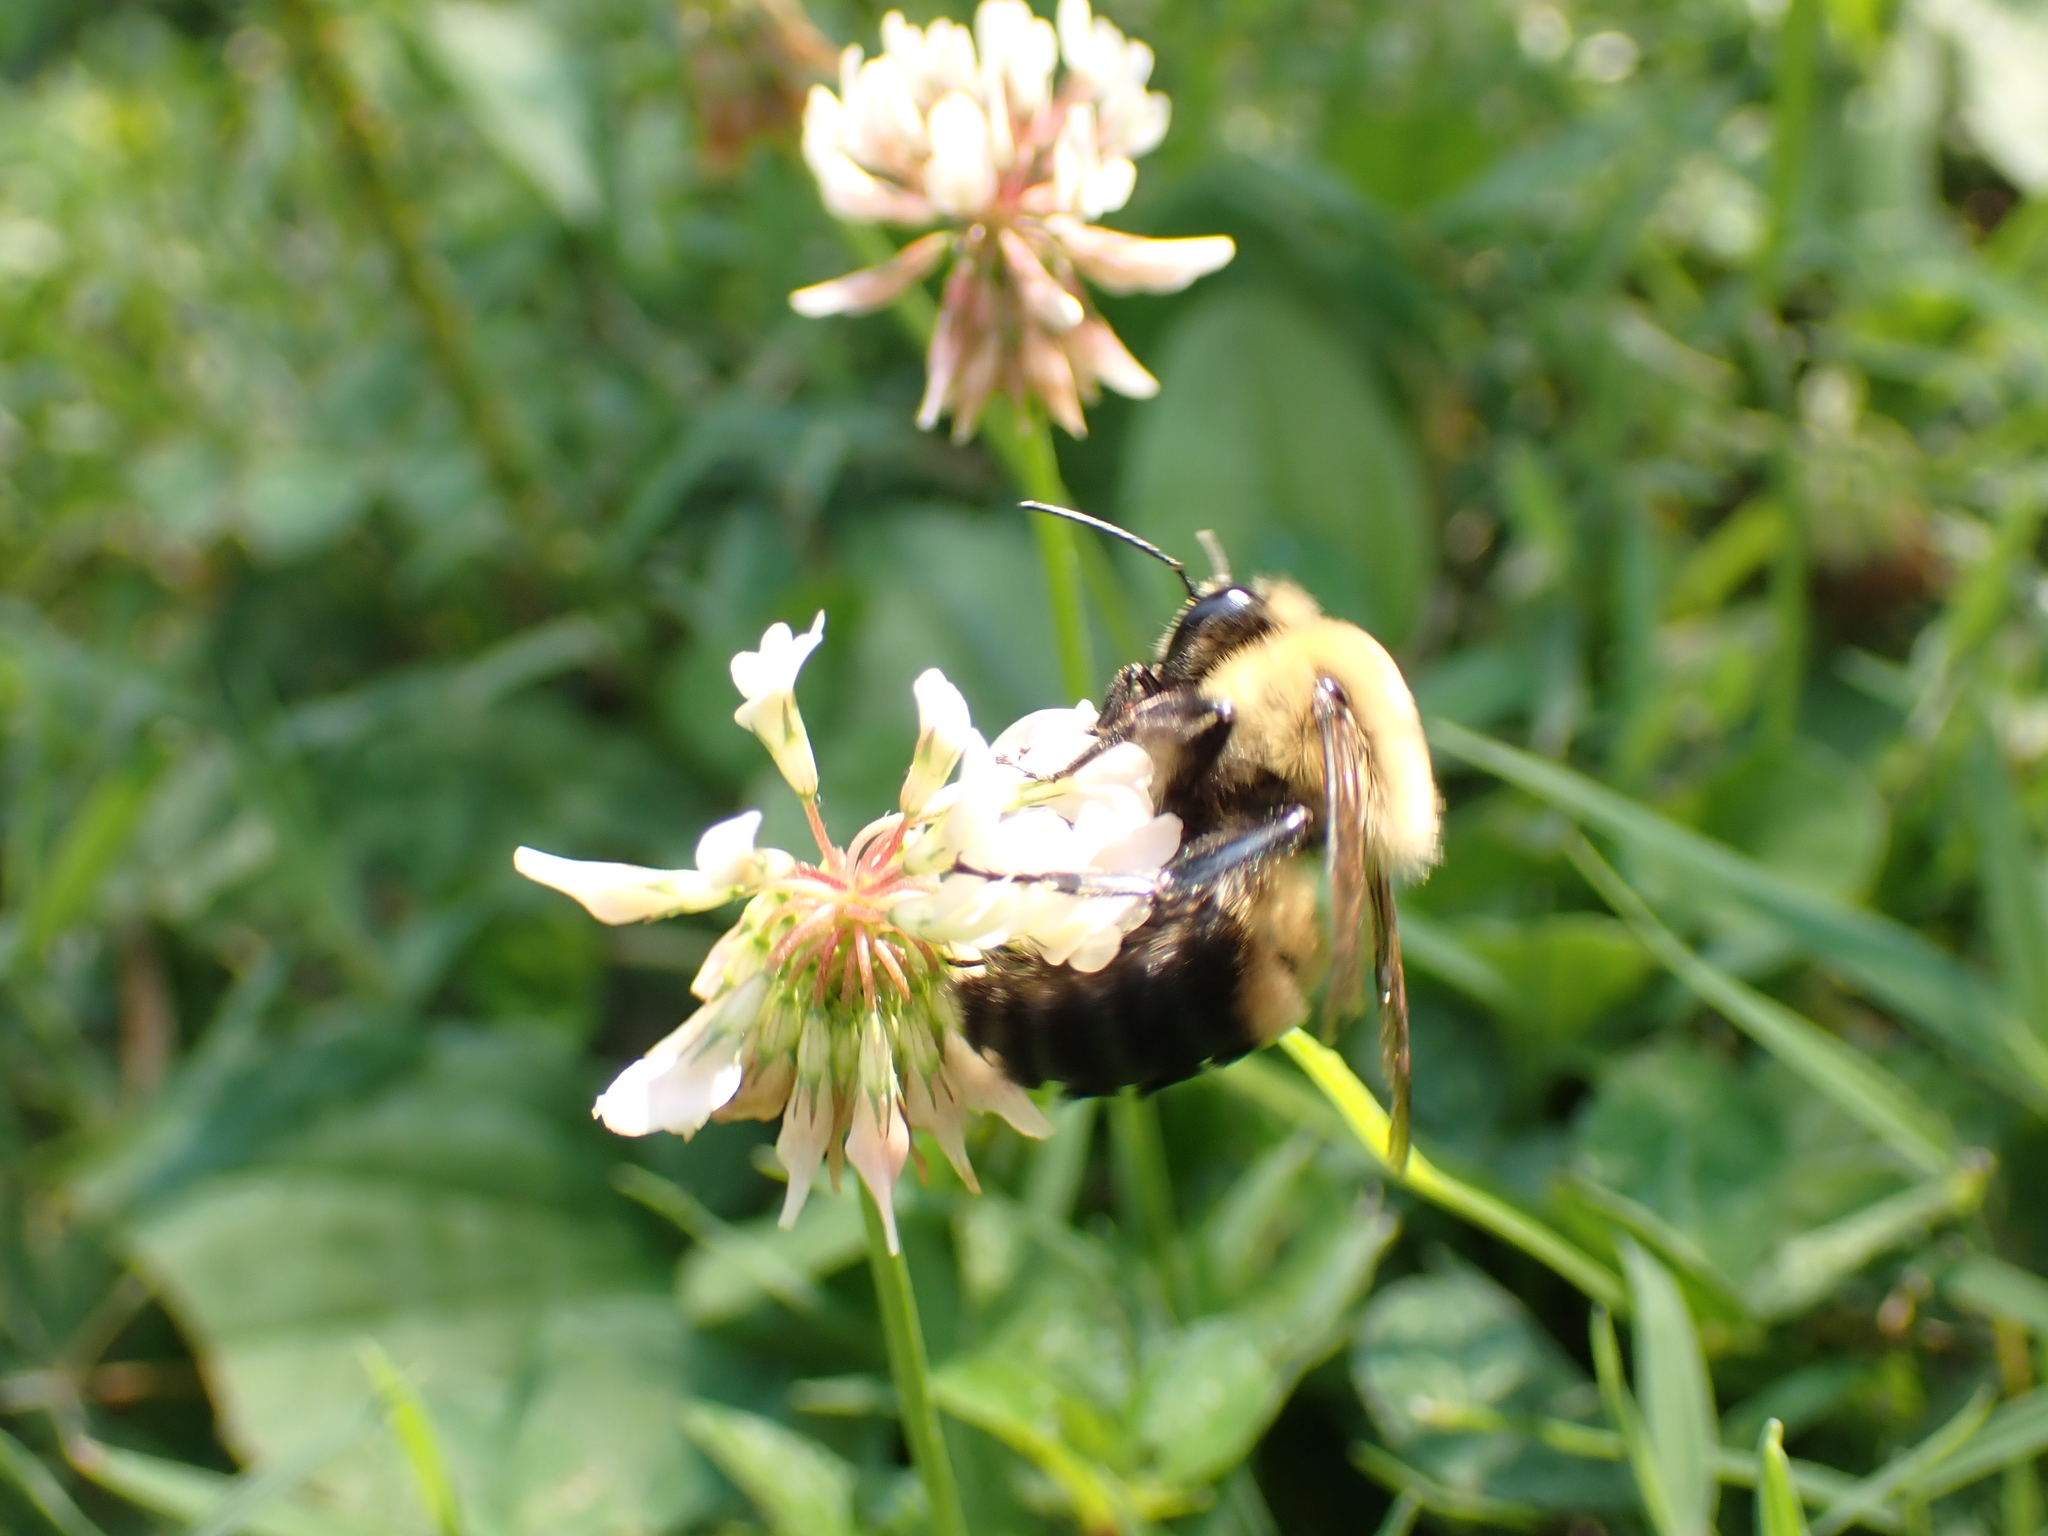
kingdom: Animalia
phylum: Arthropoda
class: Insecta
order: Hymenoptera
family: Apidae
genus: Bombus
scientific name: Bombus griseocollis
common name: Brown-belted bumble bee
